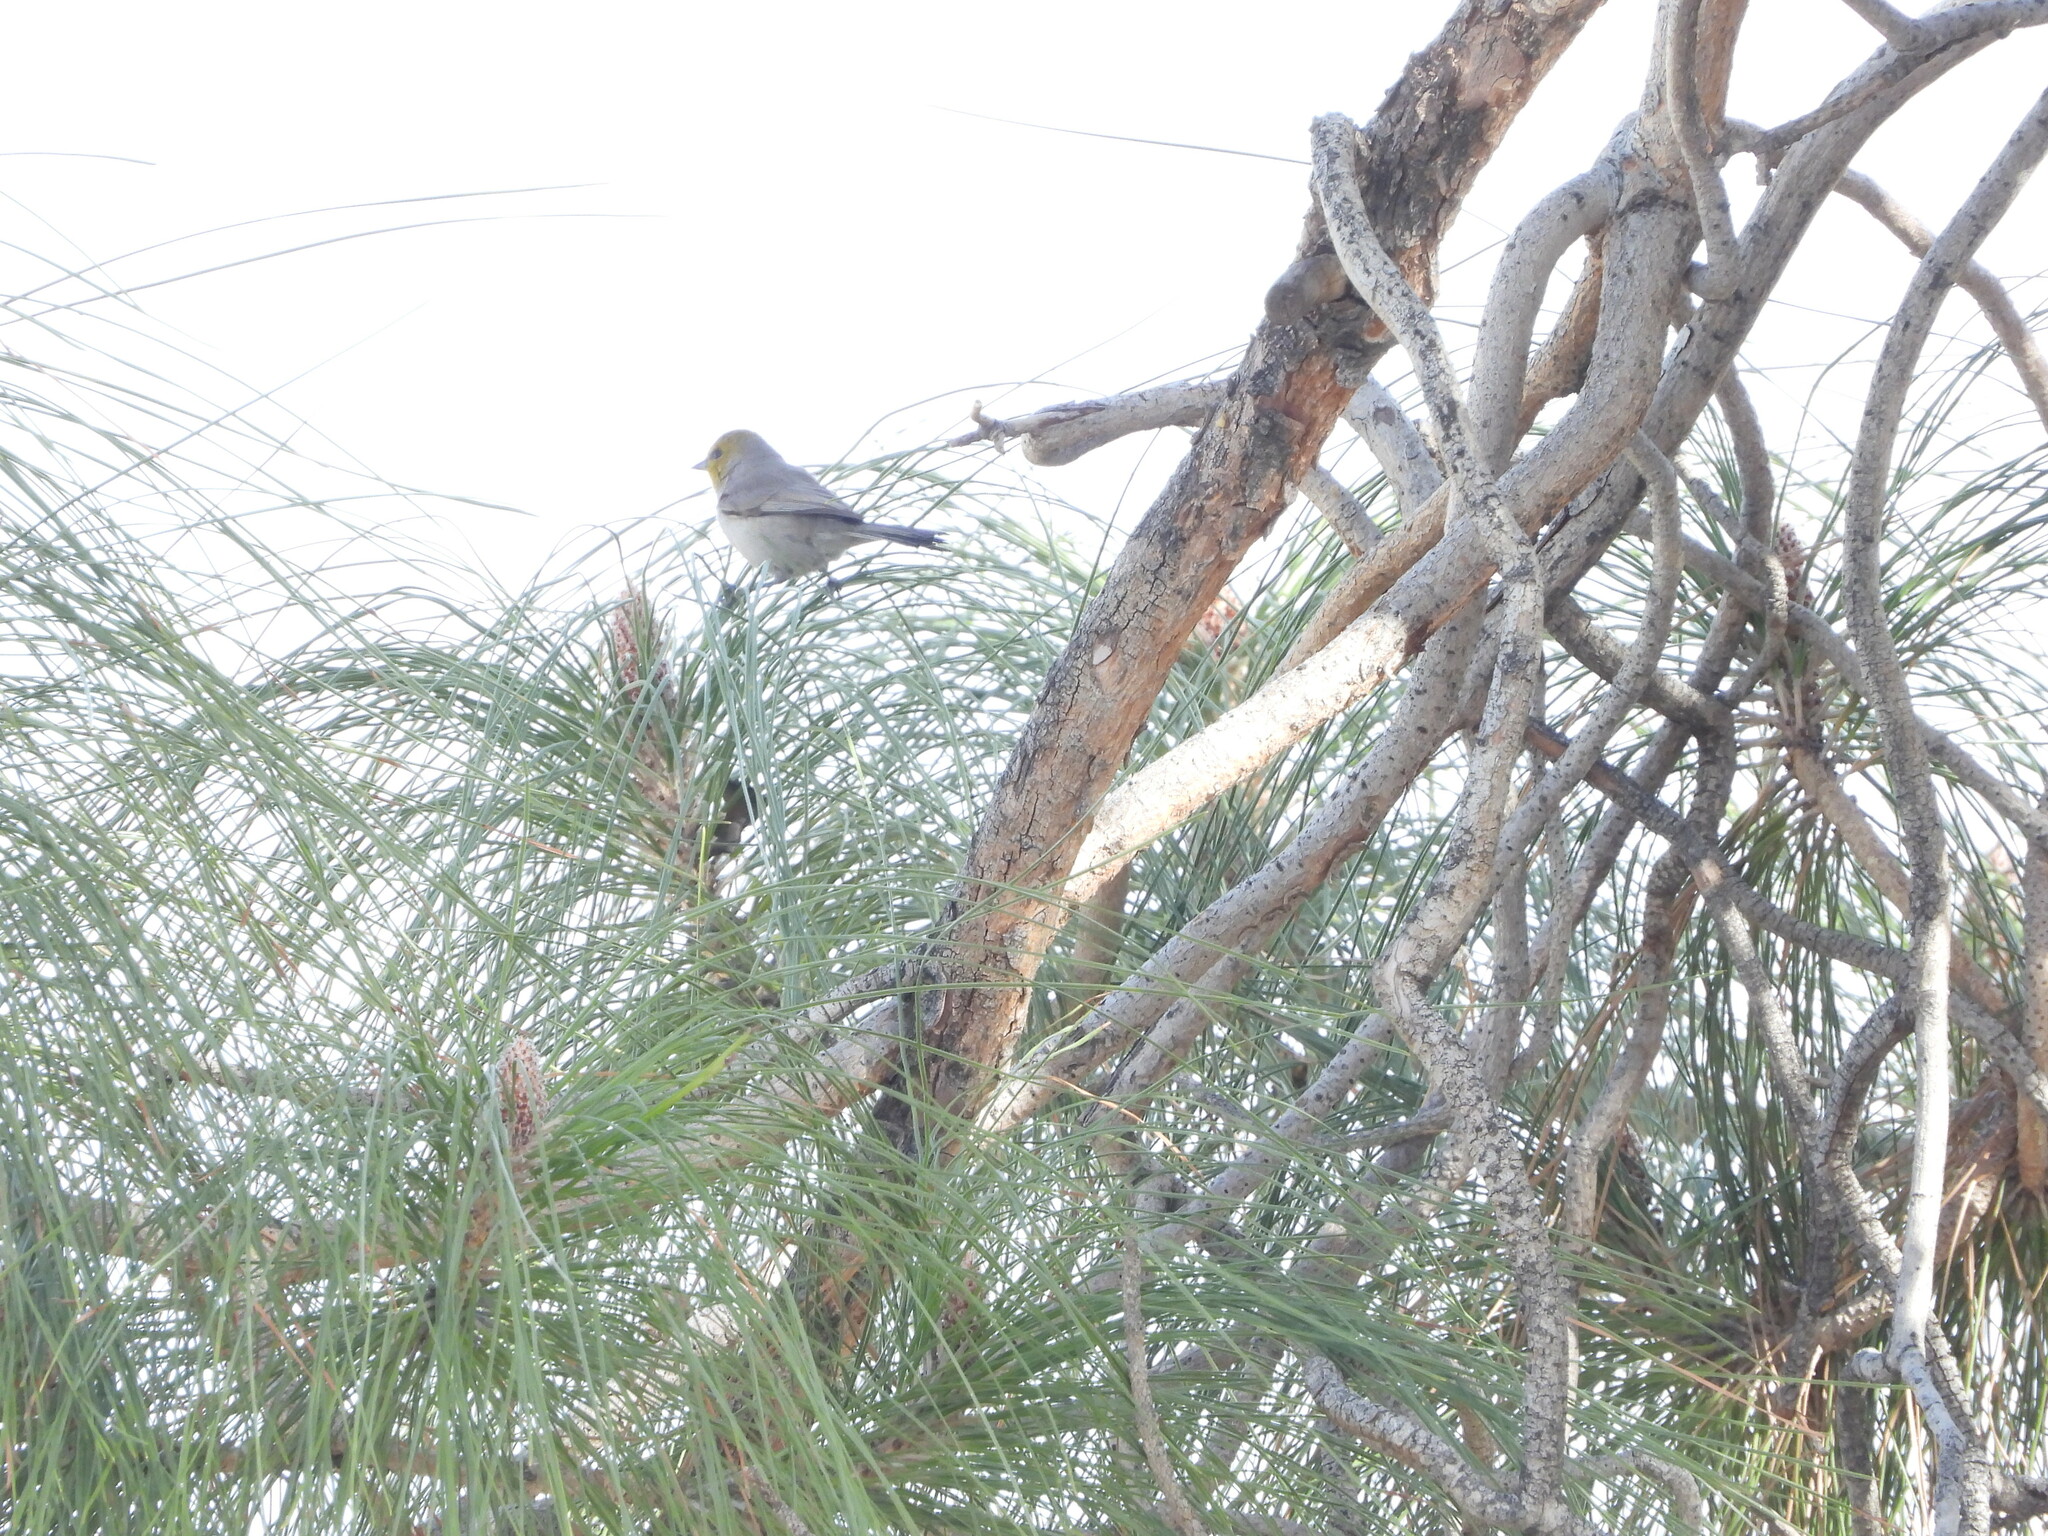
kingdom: Animalia
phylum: Chordata
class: Aves
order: Passeriformes
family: Remizidae
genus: Auriparus
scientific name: Auriparus flaviceps
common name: Verdin
